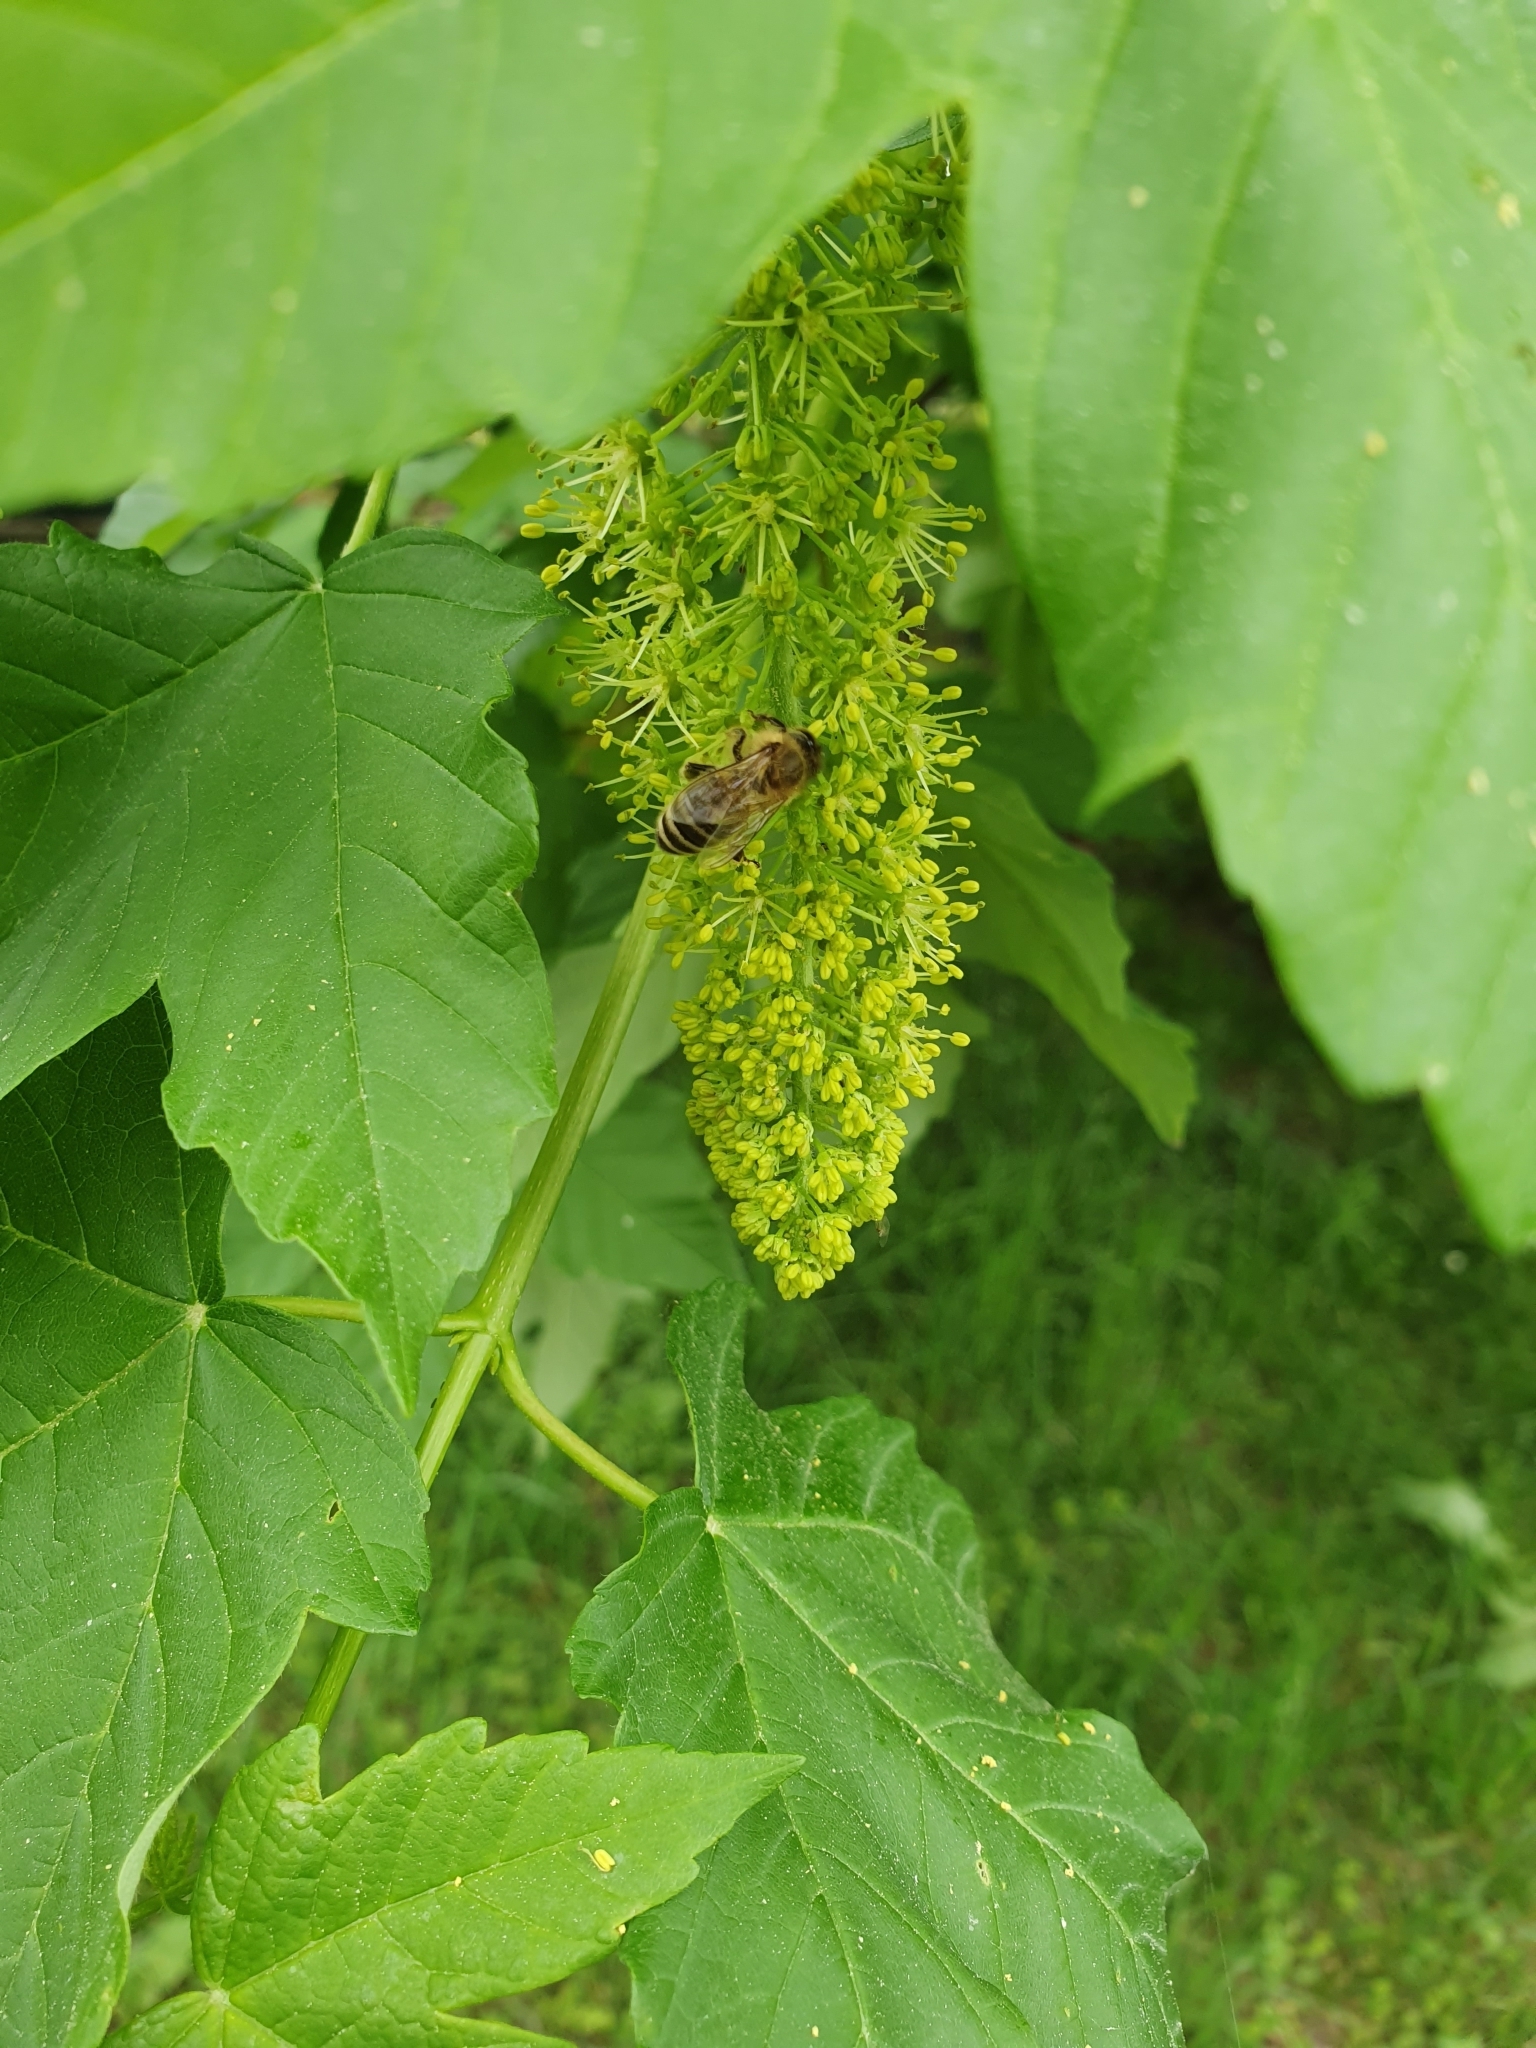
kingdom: Animalia
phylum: Arthropoda
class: Insecta
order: Hymenoptera
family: Apidae
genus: Apis
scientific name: Apis mellifera
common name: Honey bee
